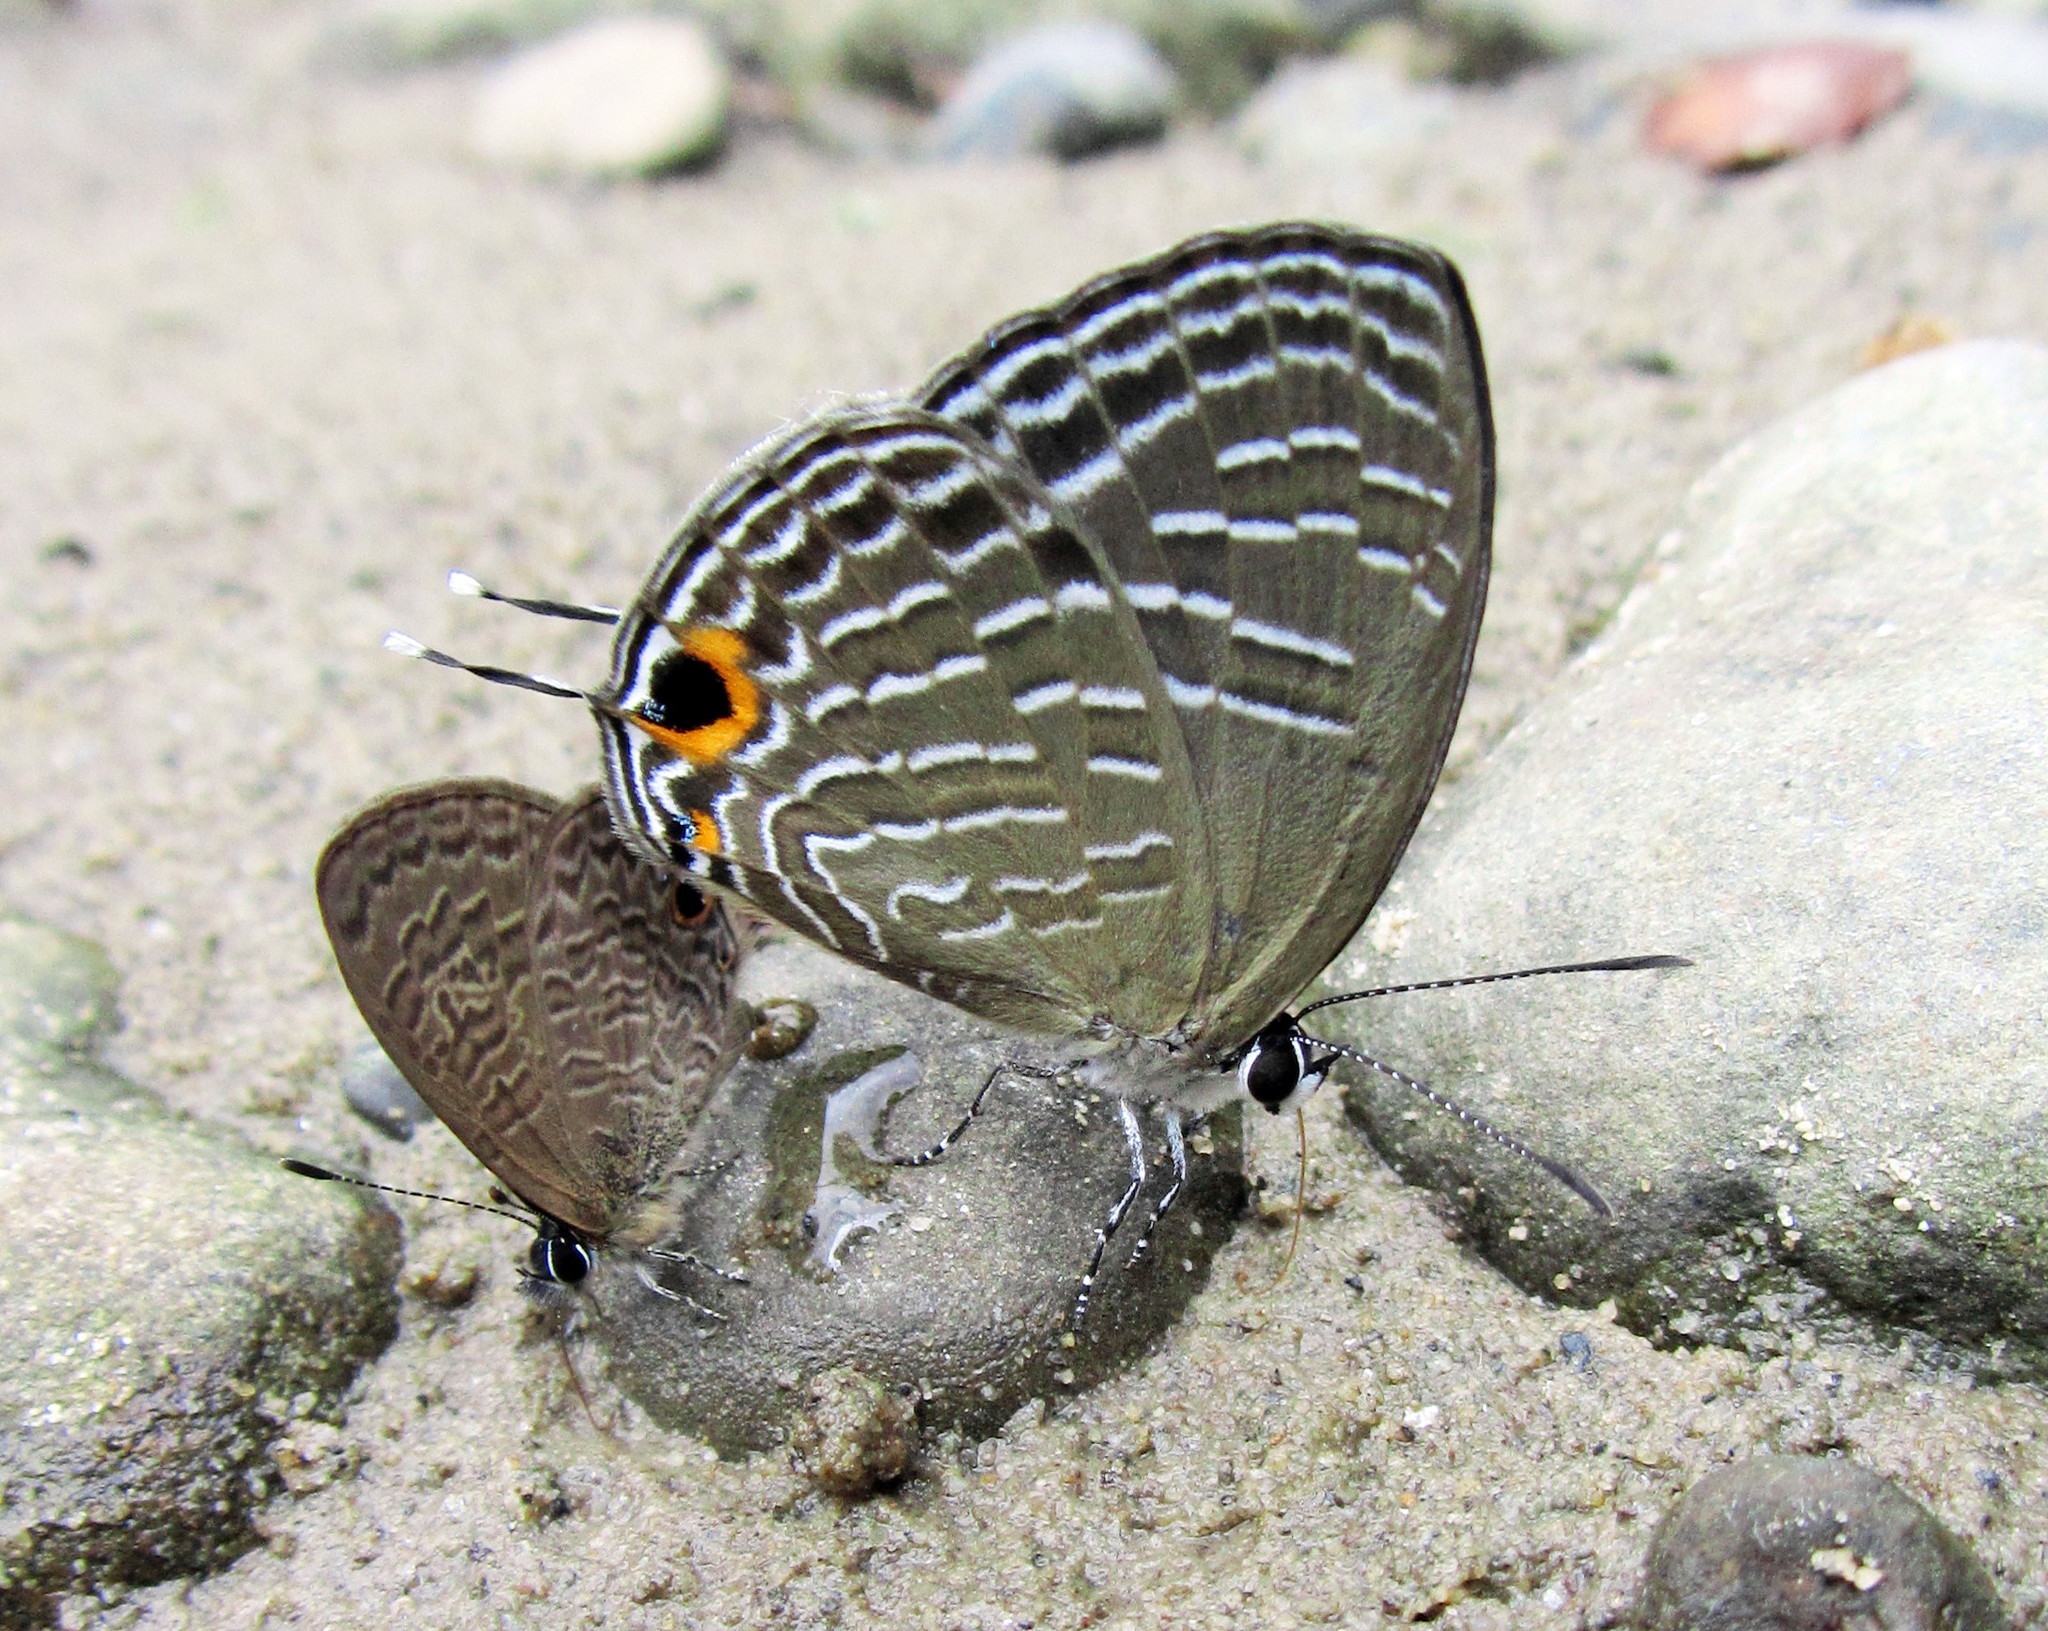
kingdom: Animalia
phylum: Arthropoda
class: Insecta
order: Lepidoptera
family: Lycaenidae
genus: Jamides
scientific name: Jamides elpis
